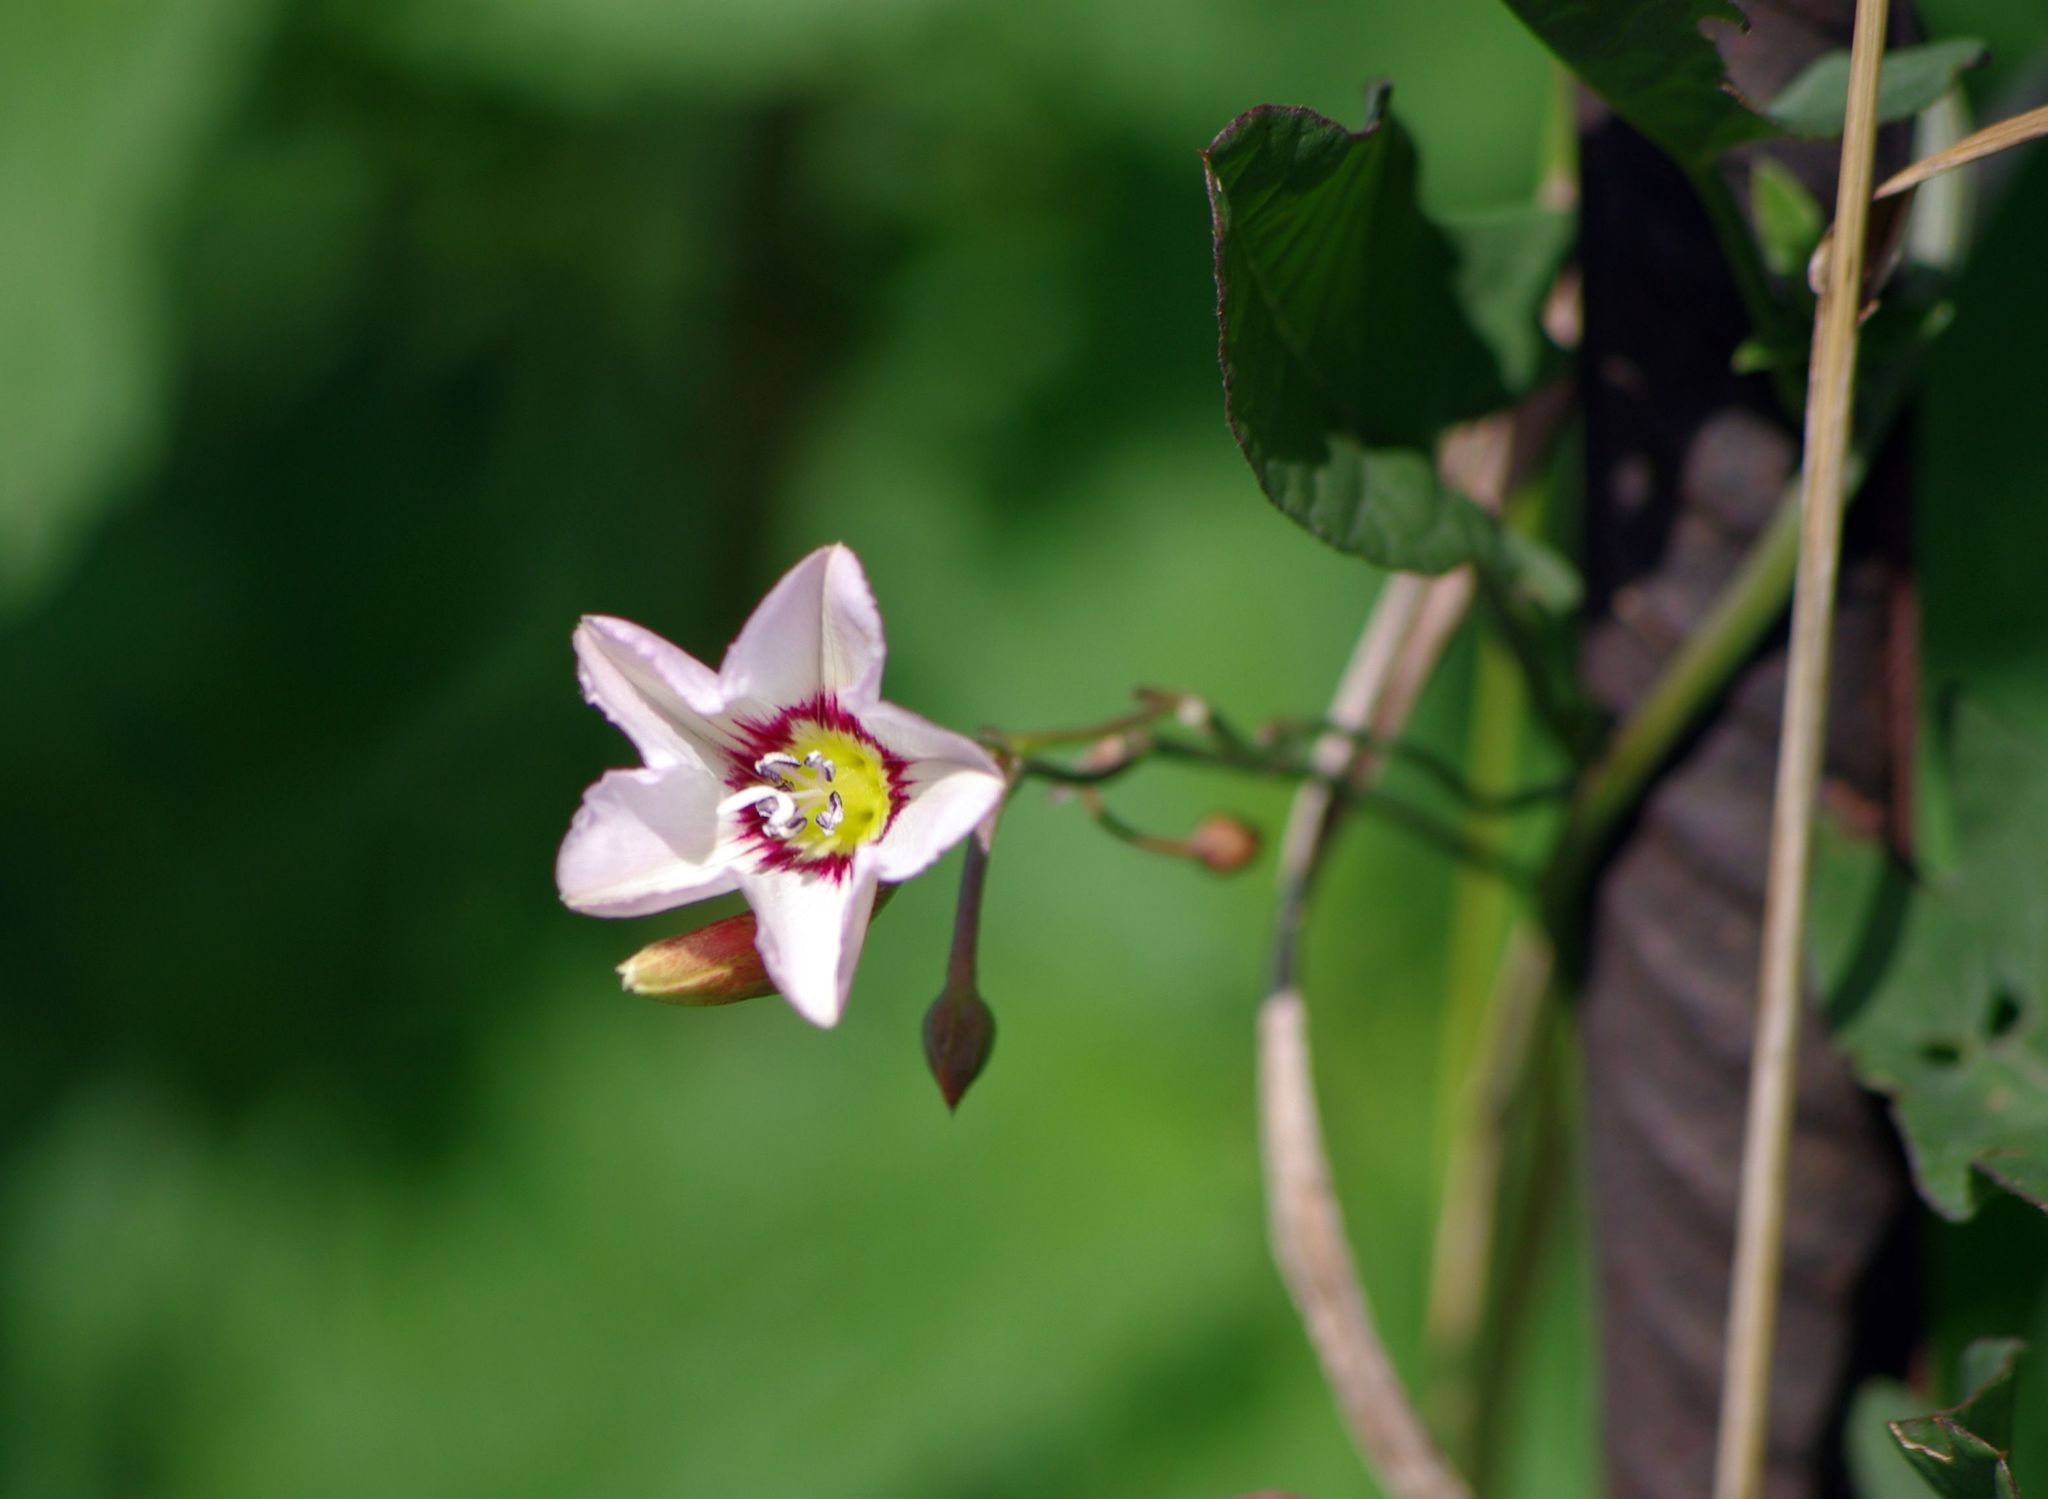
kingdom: Plantae
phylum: Tracheophyta
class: Magnoliopsida
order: Solanales
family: Convolvulaceae
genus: Convolvulus
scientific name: Convolvulus arvensis
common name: Field bindweed
